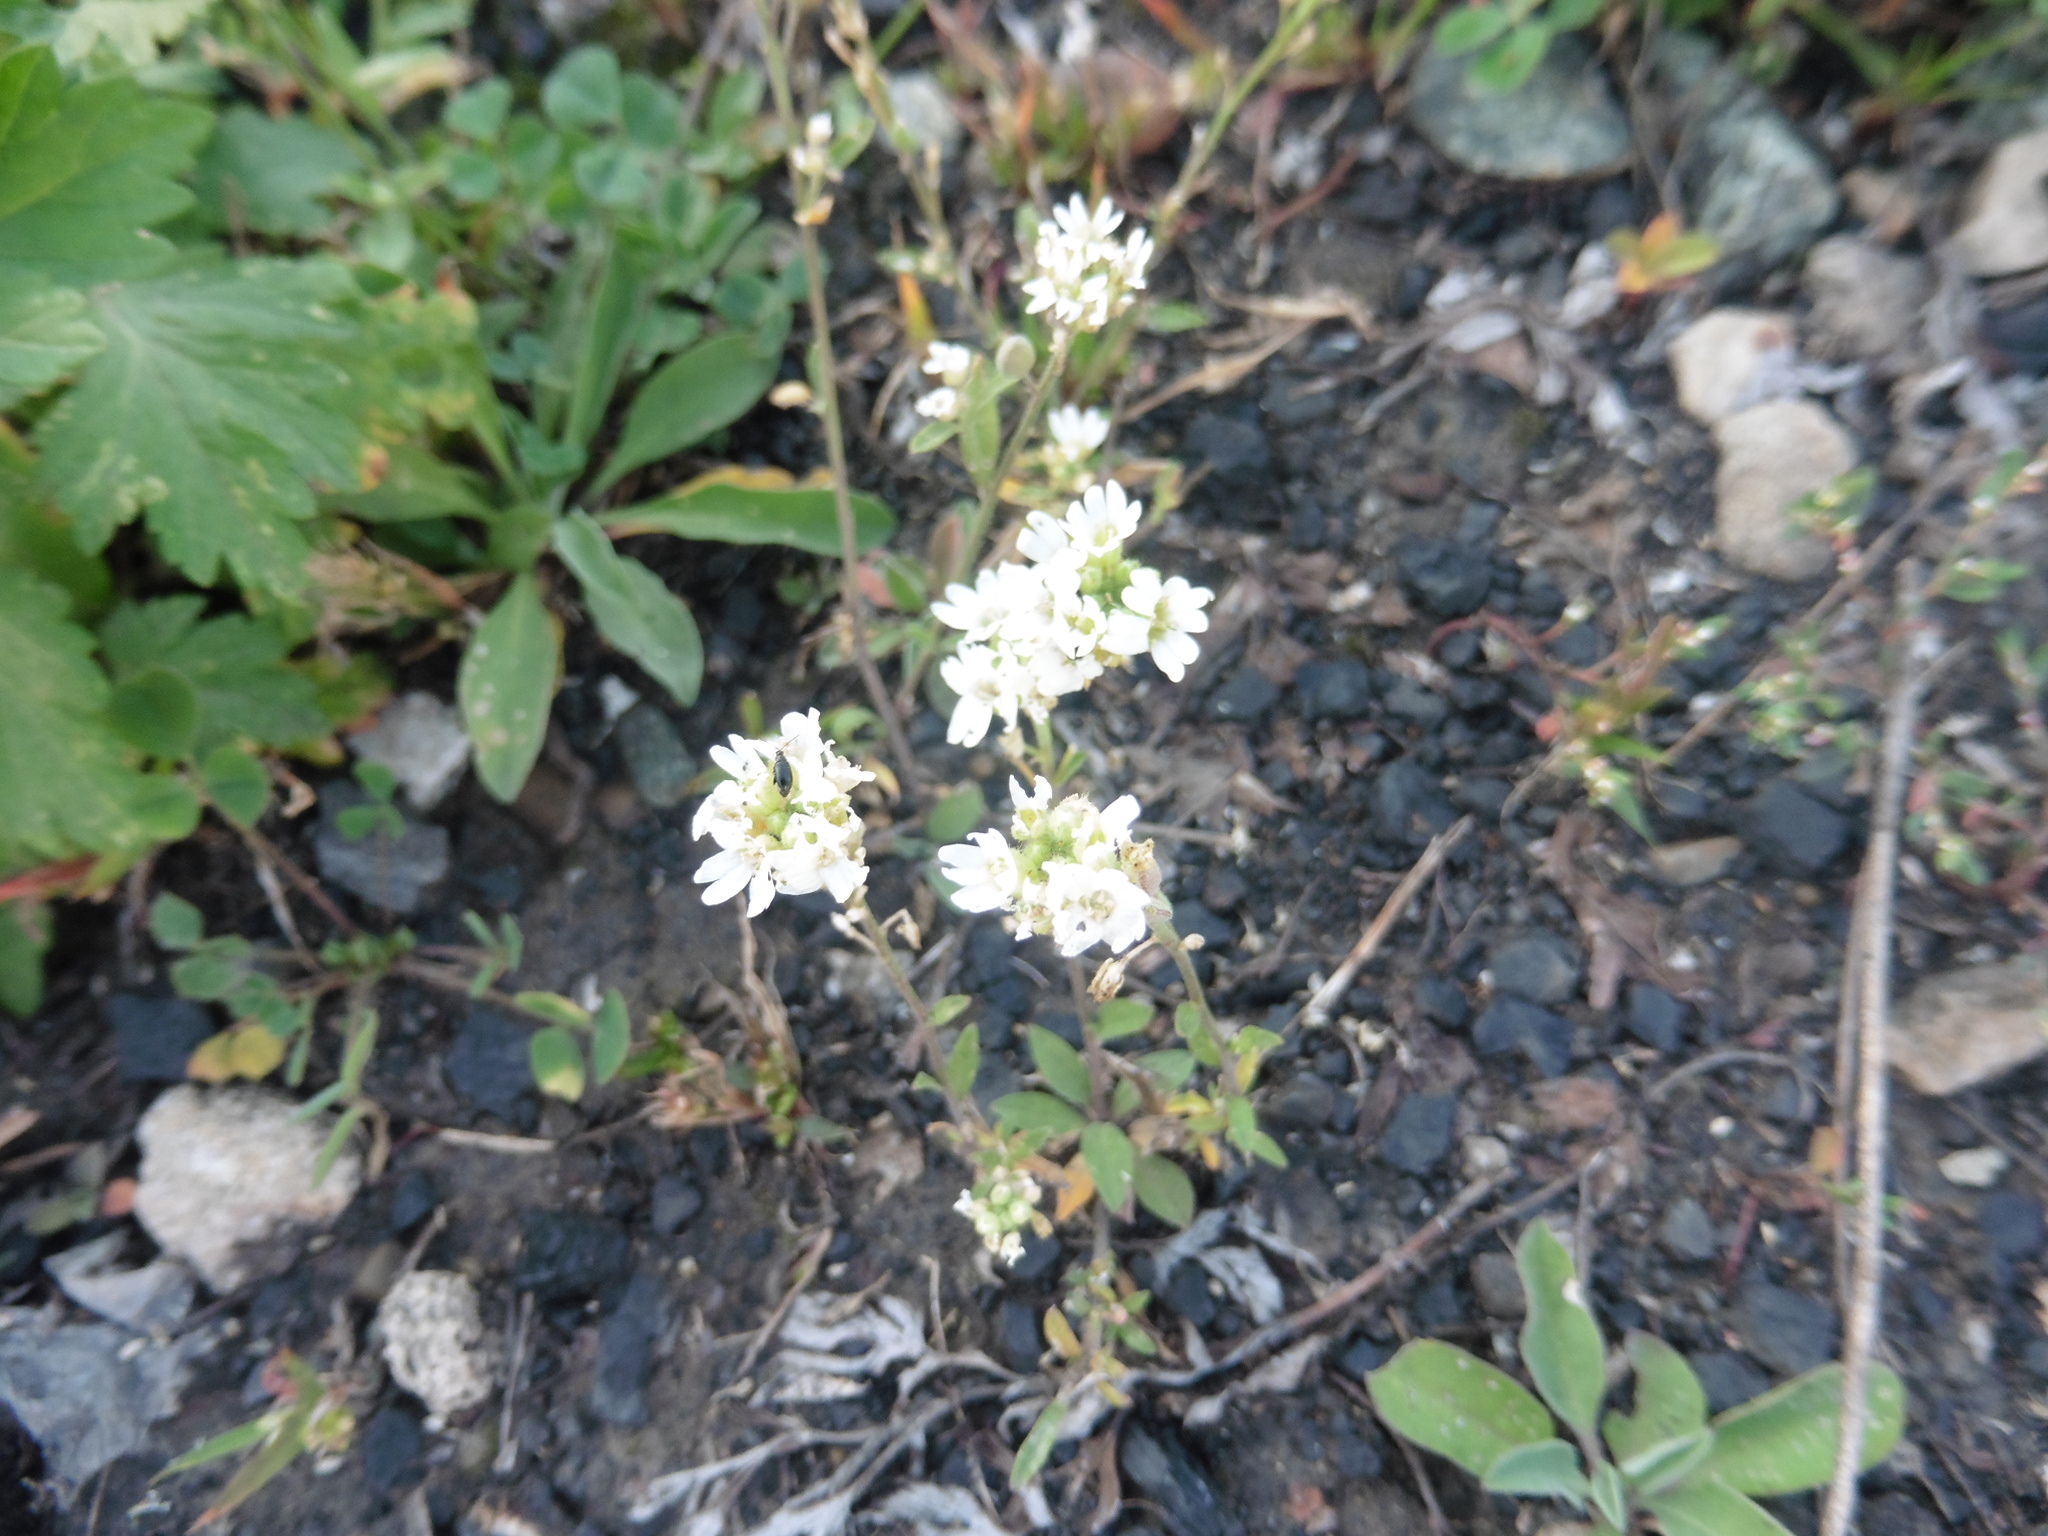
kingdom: Plantae
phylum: Tracheophyta
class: Magnoliopsida
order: Brassicales
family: Brassicaceae
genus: Berteroa
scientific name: Berteroa incana
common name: Hoary alison
